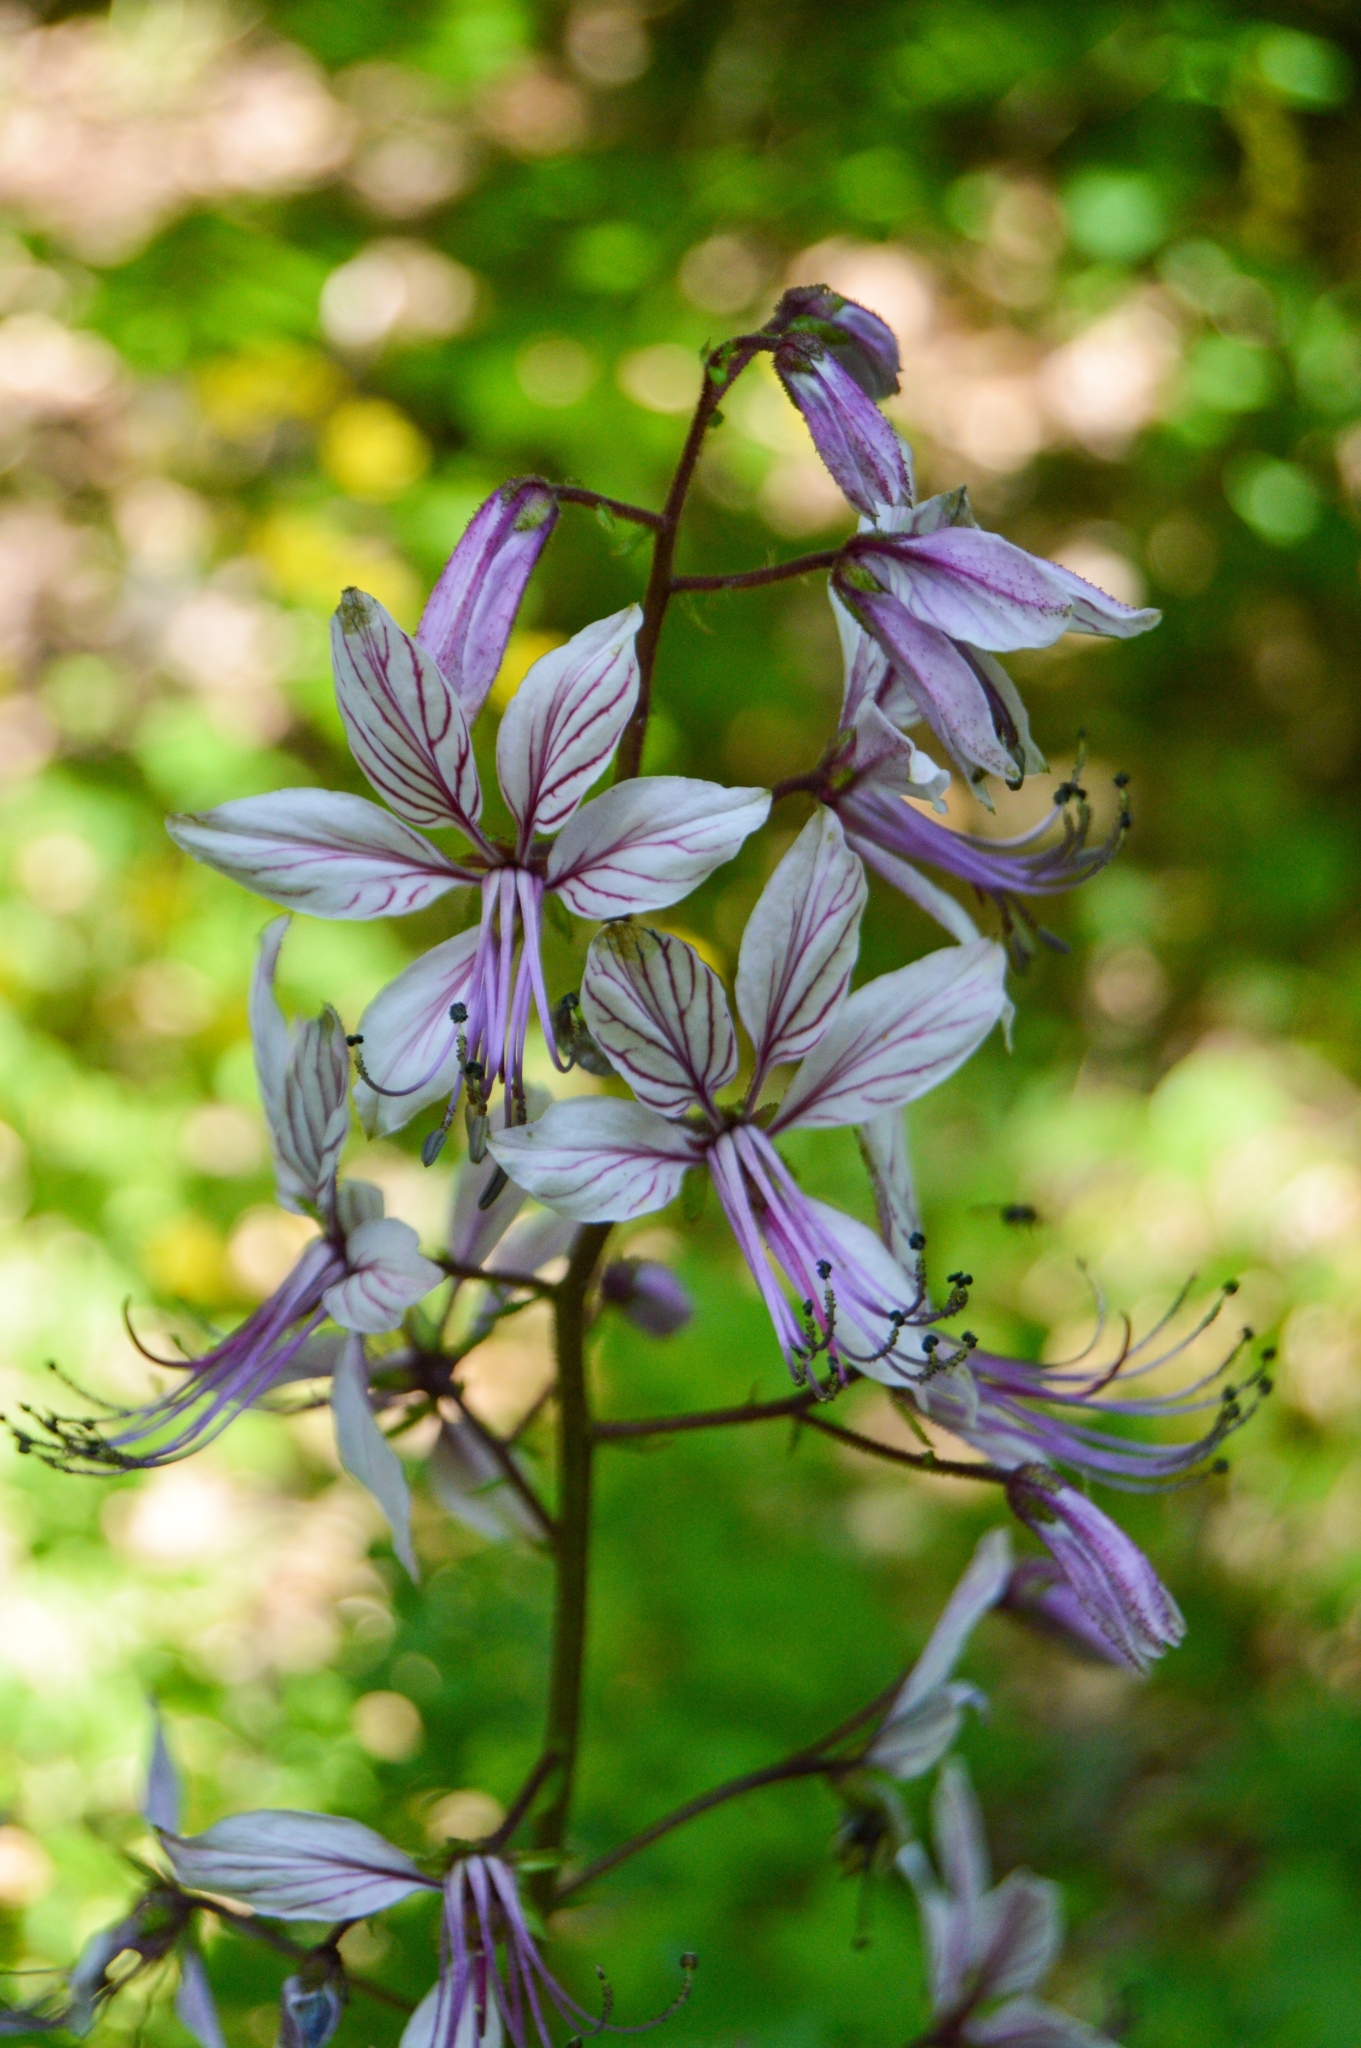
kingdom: Plantae
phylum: Tracheophyta
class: Magnoliopsida
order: Sapindales
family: Rutaceae
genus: Dictamnus
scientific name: Dictamnus albus
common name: Gasplant
